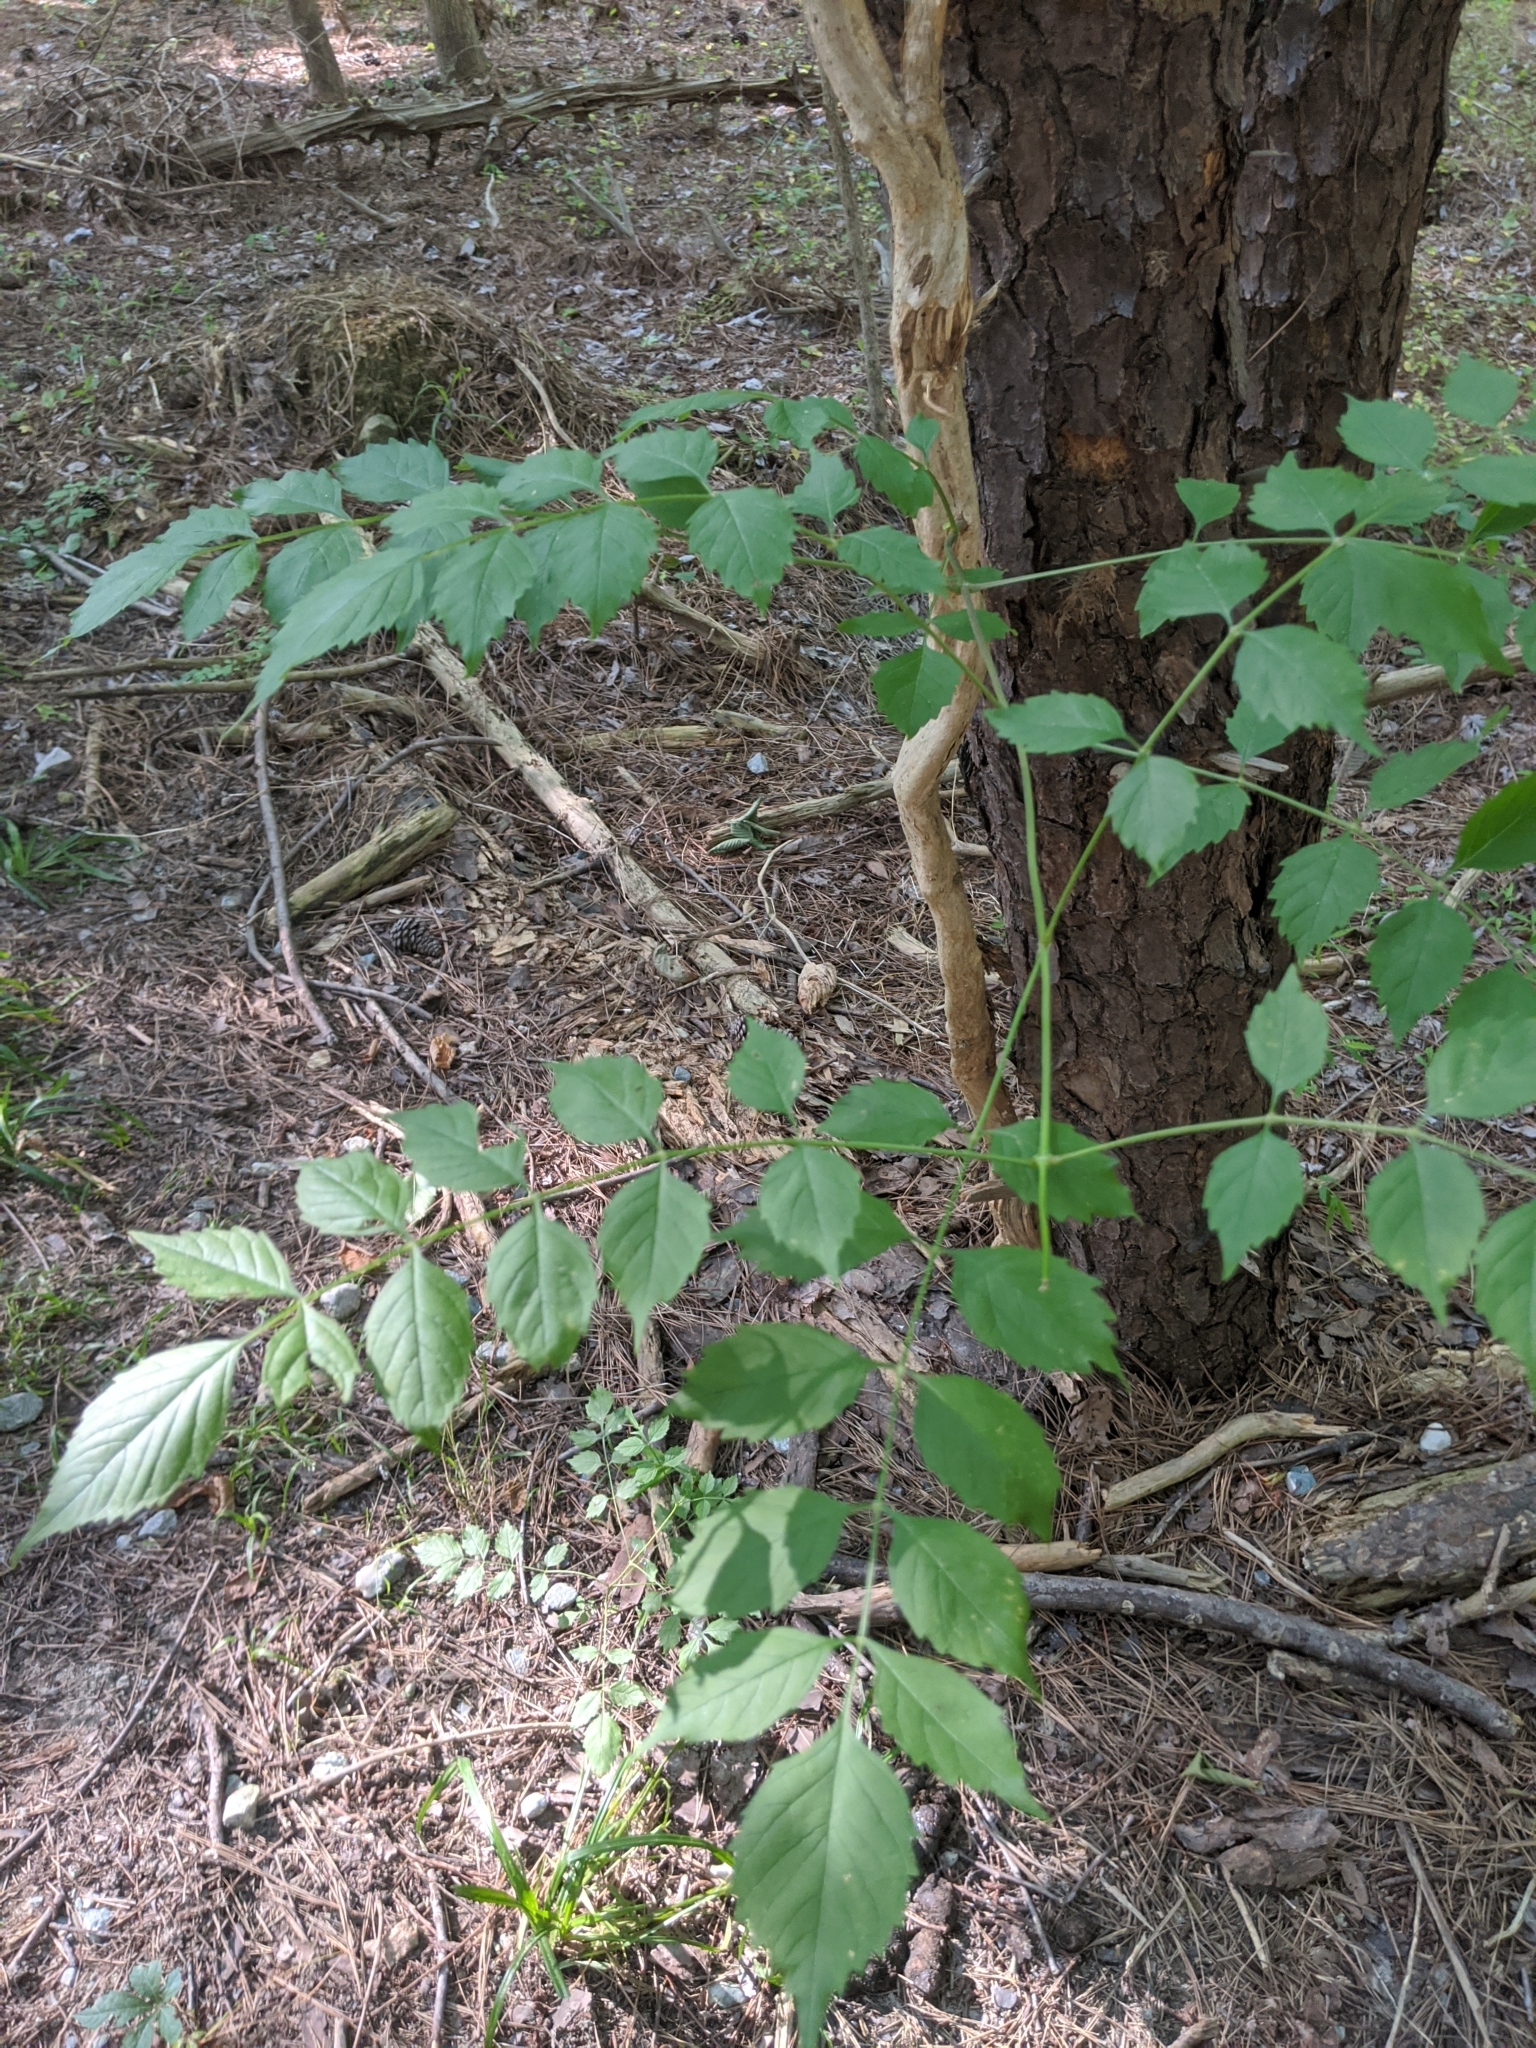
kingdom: Plantae
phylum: Tracheophyta
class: Magnoliopsida
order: Lamiales
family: Bignoniaceae
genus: Campsis
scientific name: Campsis radicans
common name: Trumpet-creeper
